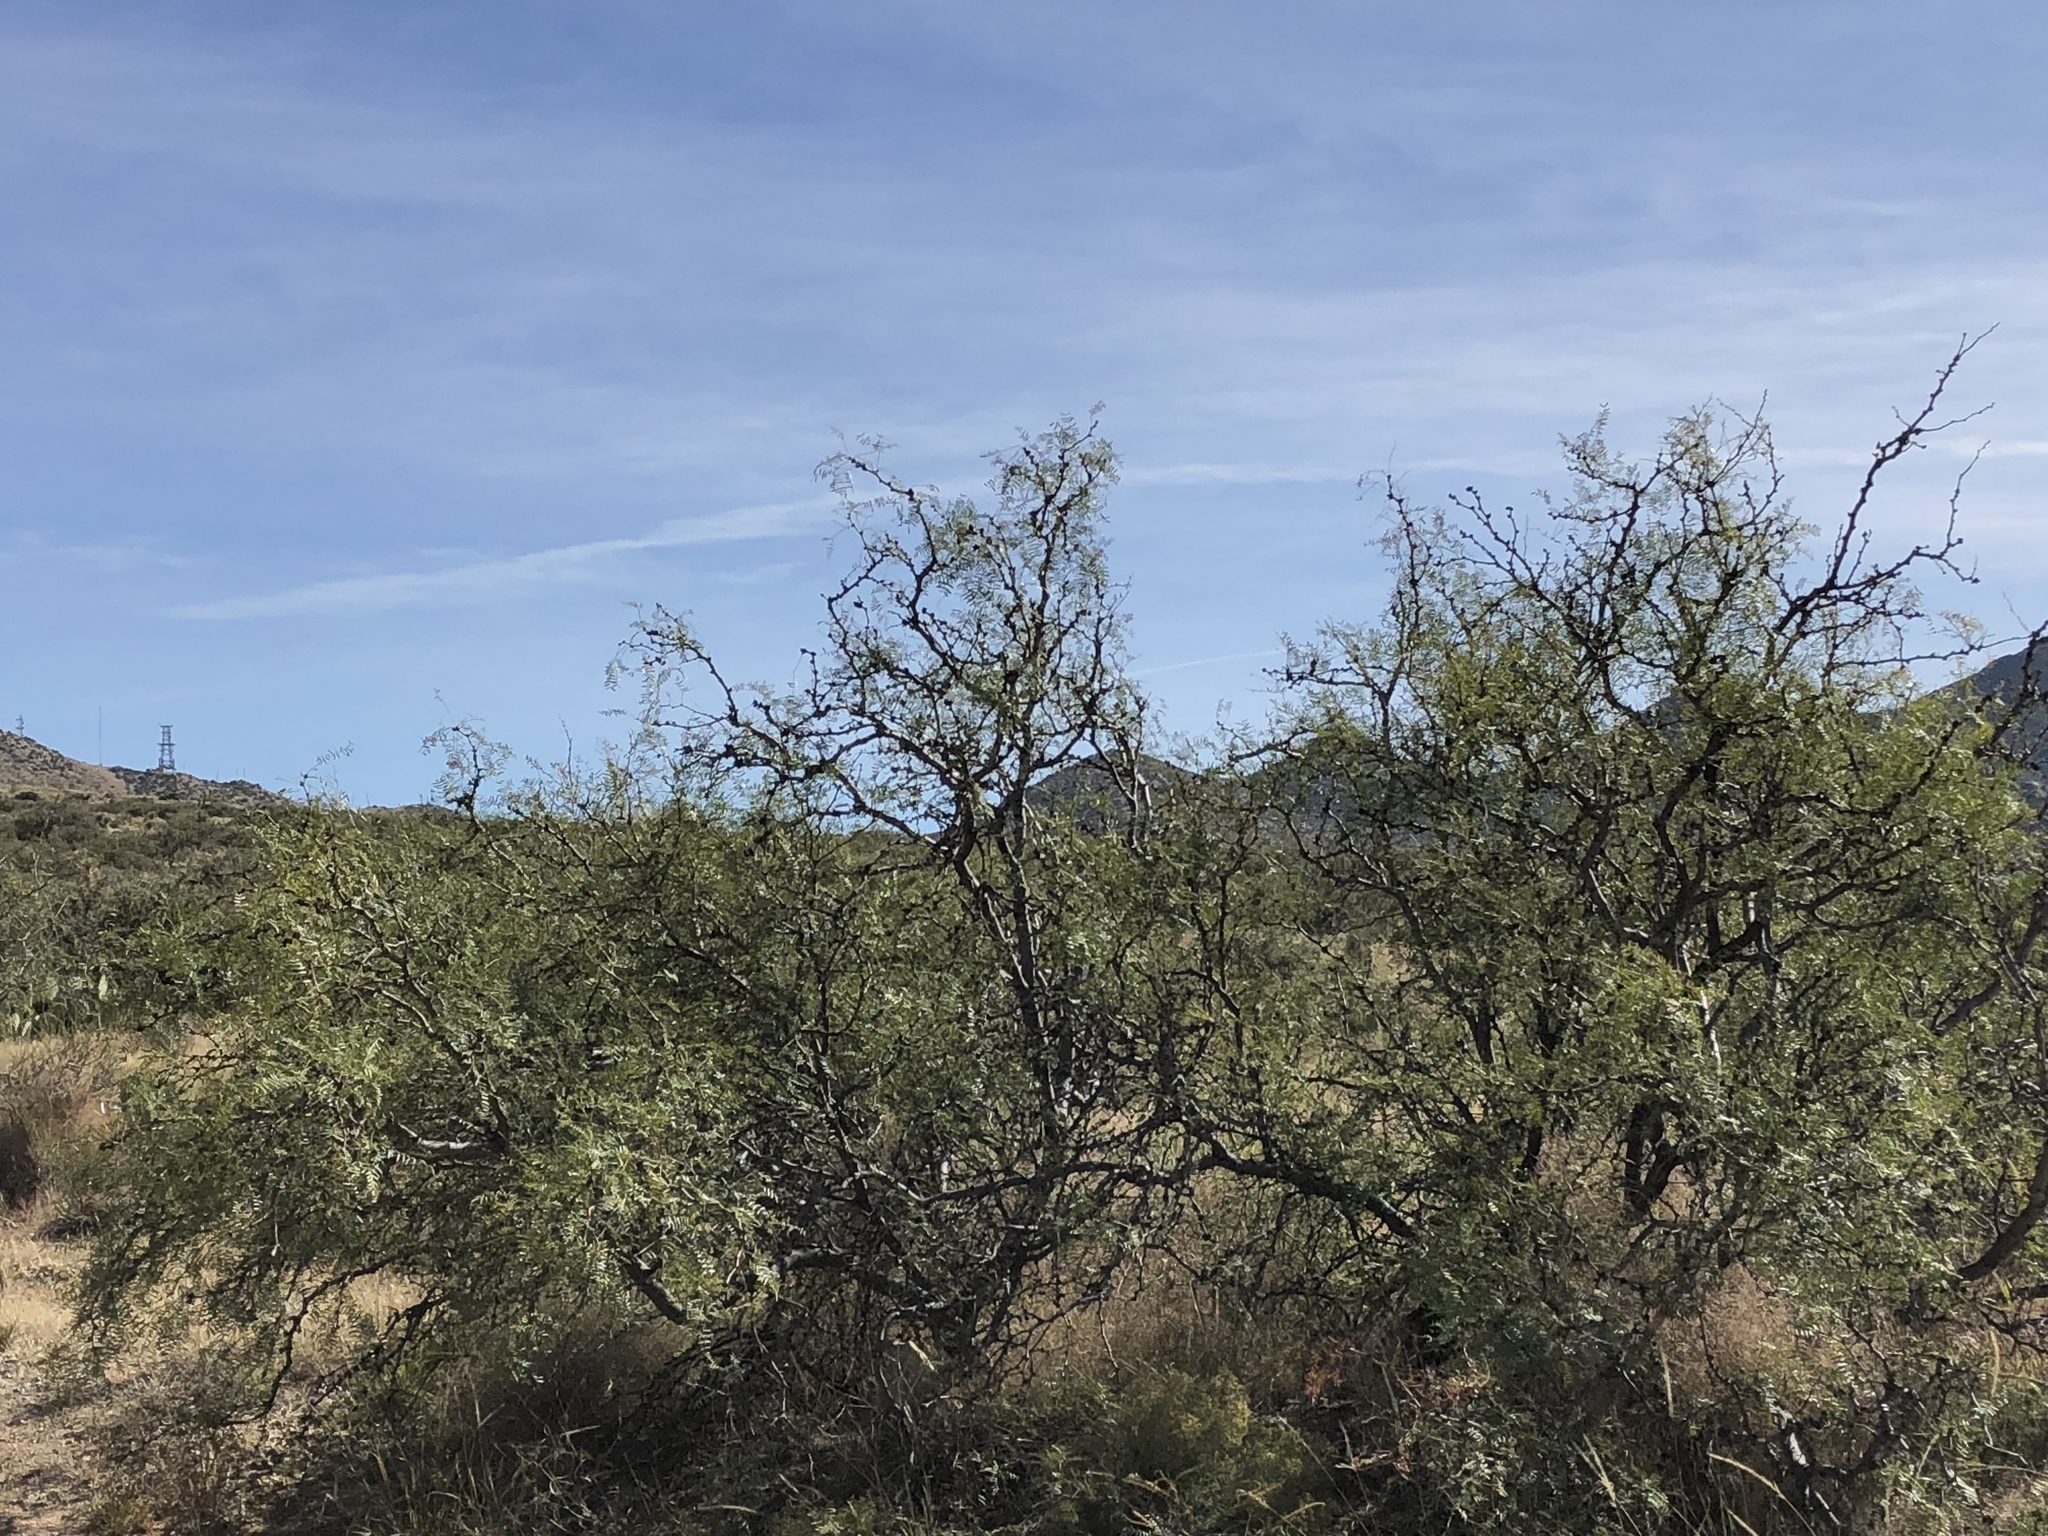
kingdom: Plantae
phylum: Tracheophyta
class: Magnoliopsida
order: Fabales
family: Fabaceae
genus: Prosopis
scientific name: Prosopis glandulosa
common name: Honey mesquite
